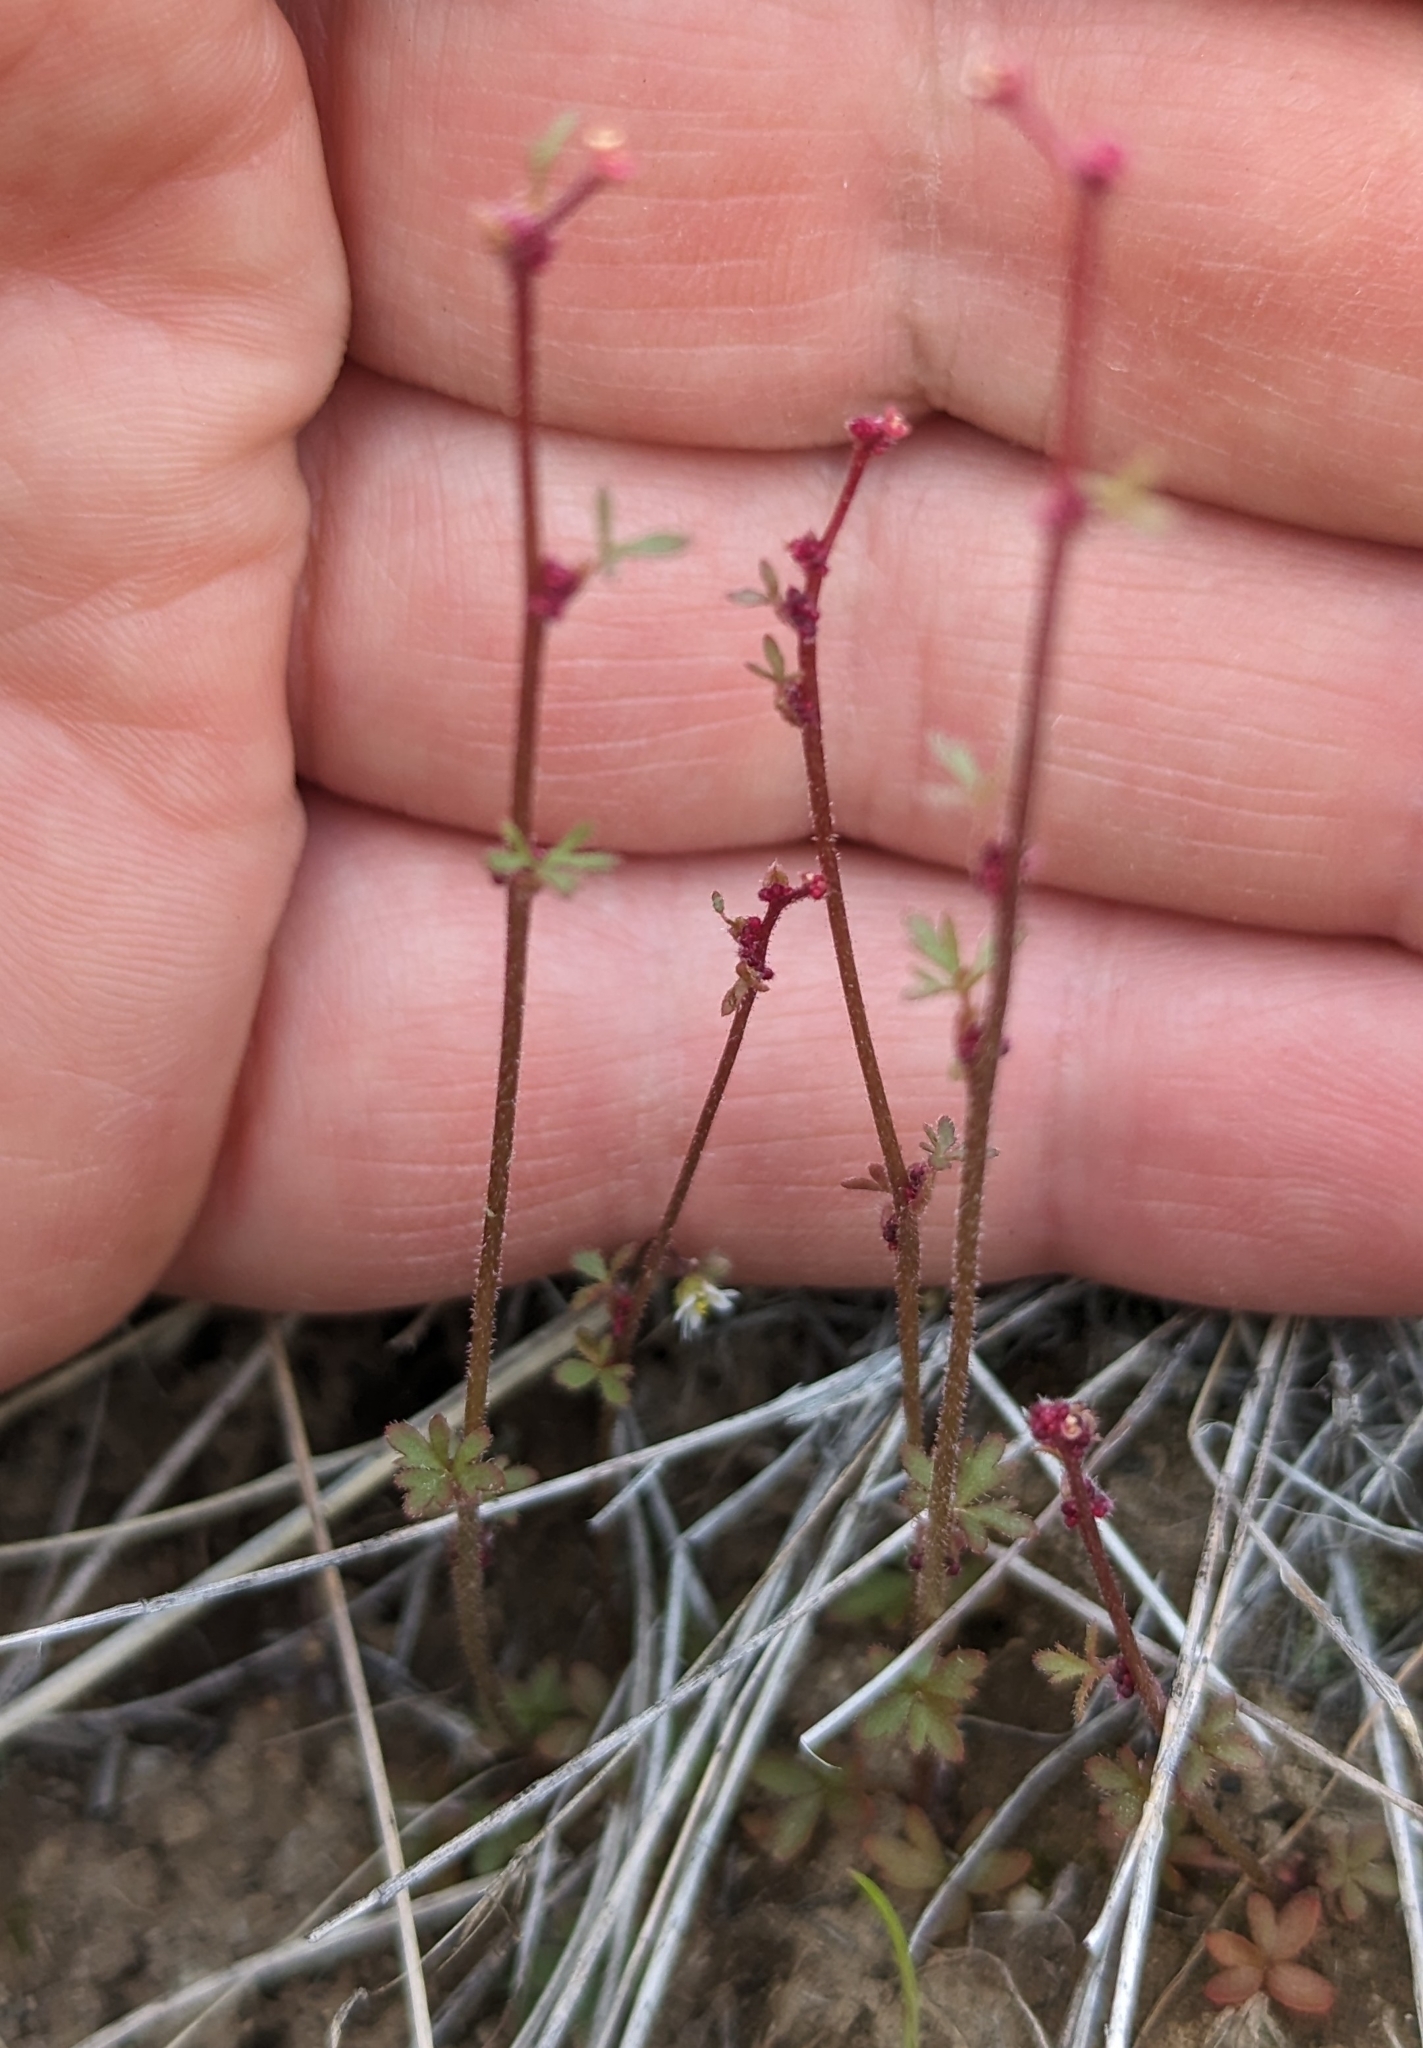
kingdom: Plantae
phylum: Tracheophyta
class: Magnoliopsida
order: Saxifragales
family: Saxifragaceae
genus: Lithophragma
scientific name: Lithophragma glabrum
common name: Bulbous prairie-star
